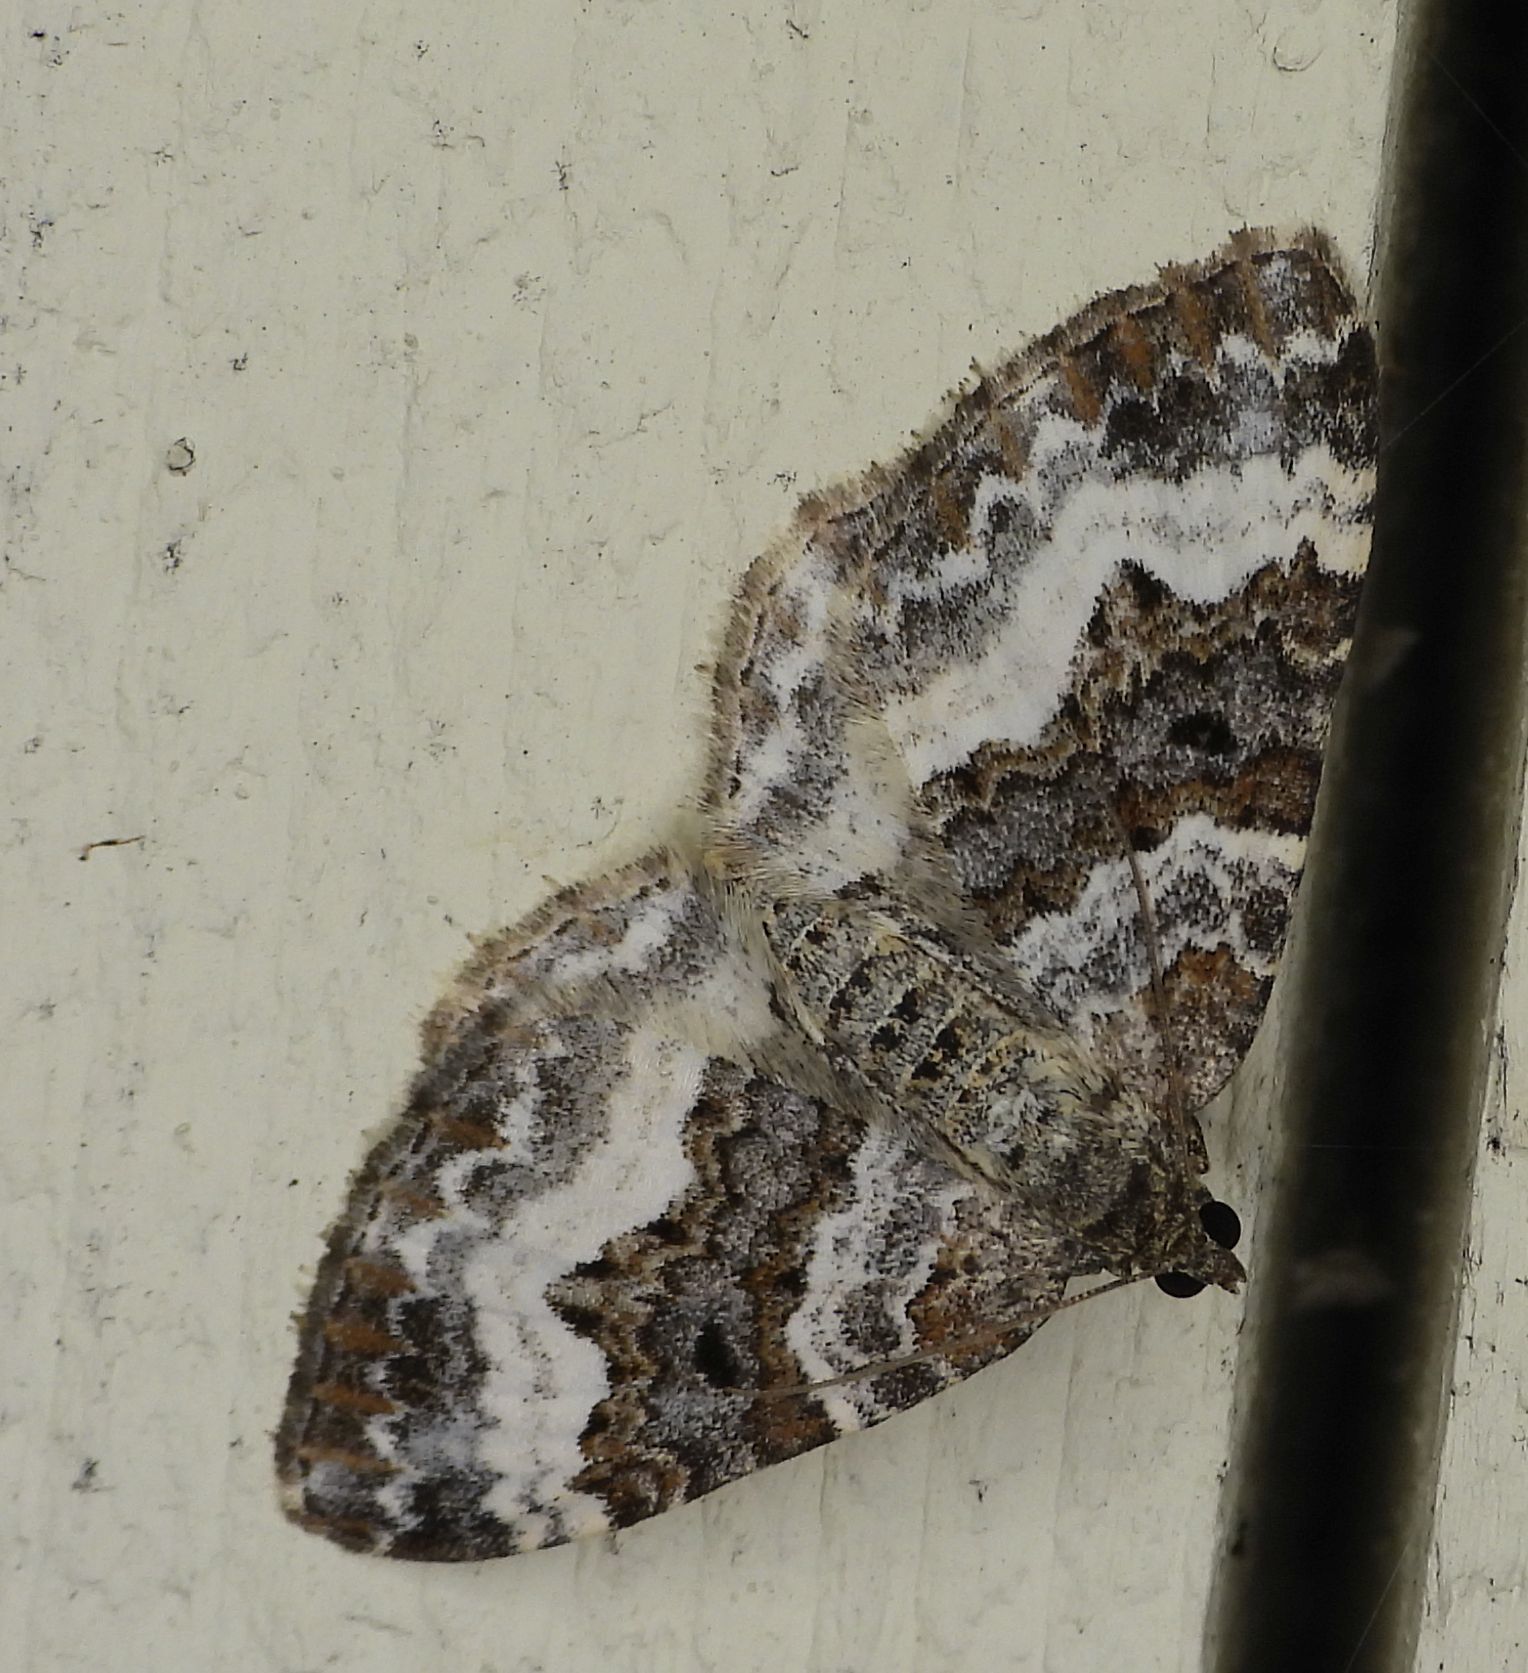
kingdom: Animalia
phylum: Arthropoda
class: Insecta
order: Lepidoptera
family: Geometridae
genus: Epirrhoe
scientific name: Epirrhoe alternata
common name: Common carpet
